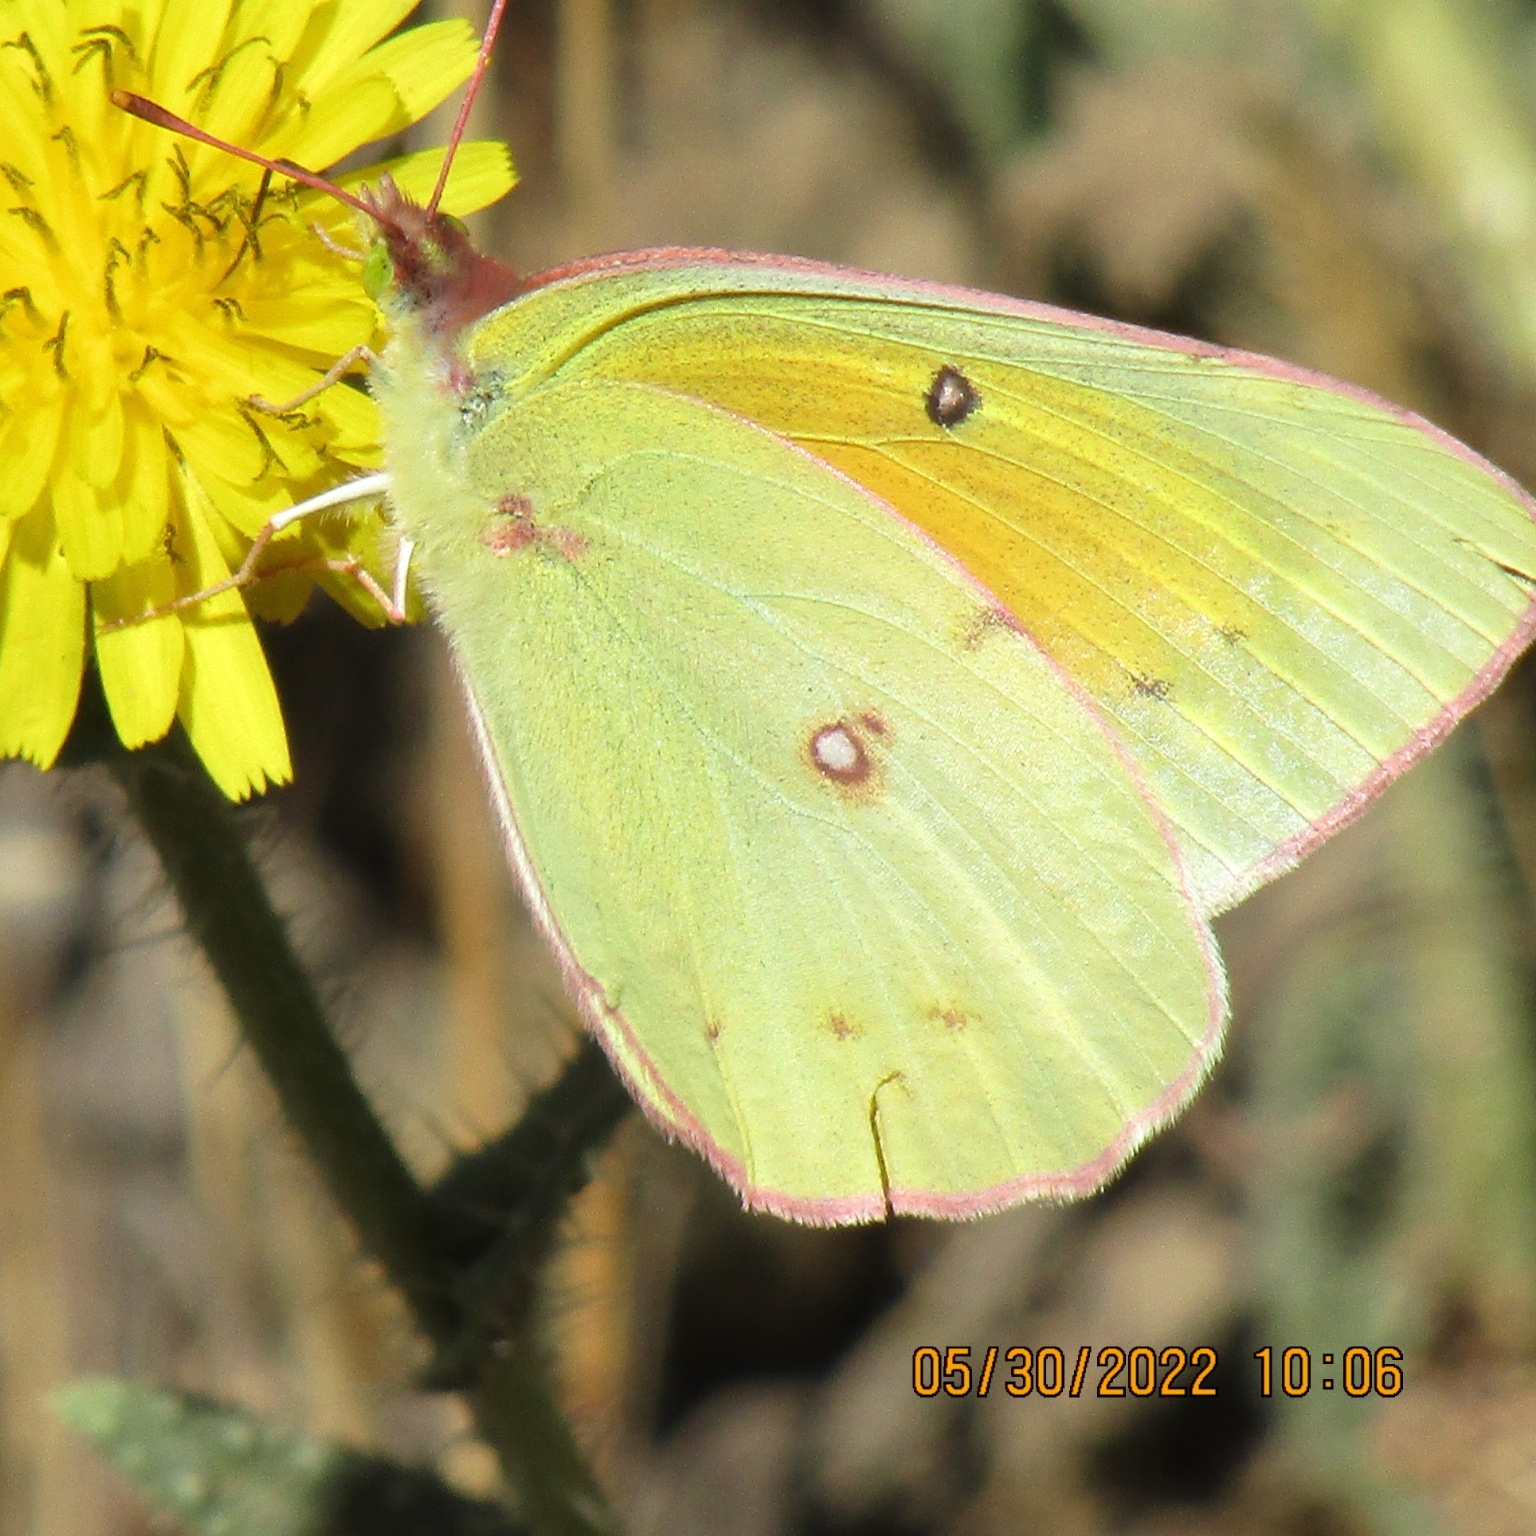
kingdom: Animalia
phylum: Arthropoda
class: Insecta
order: Lepidoptera
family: Pieridae
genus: Colias
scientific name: Colias eurytheme
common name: Alfalfa butterfly
